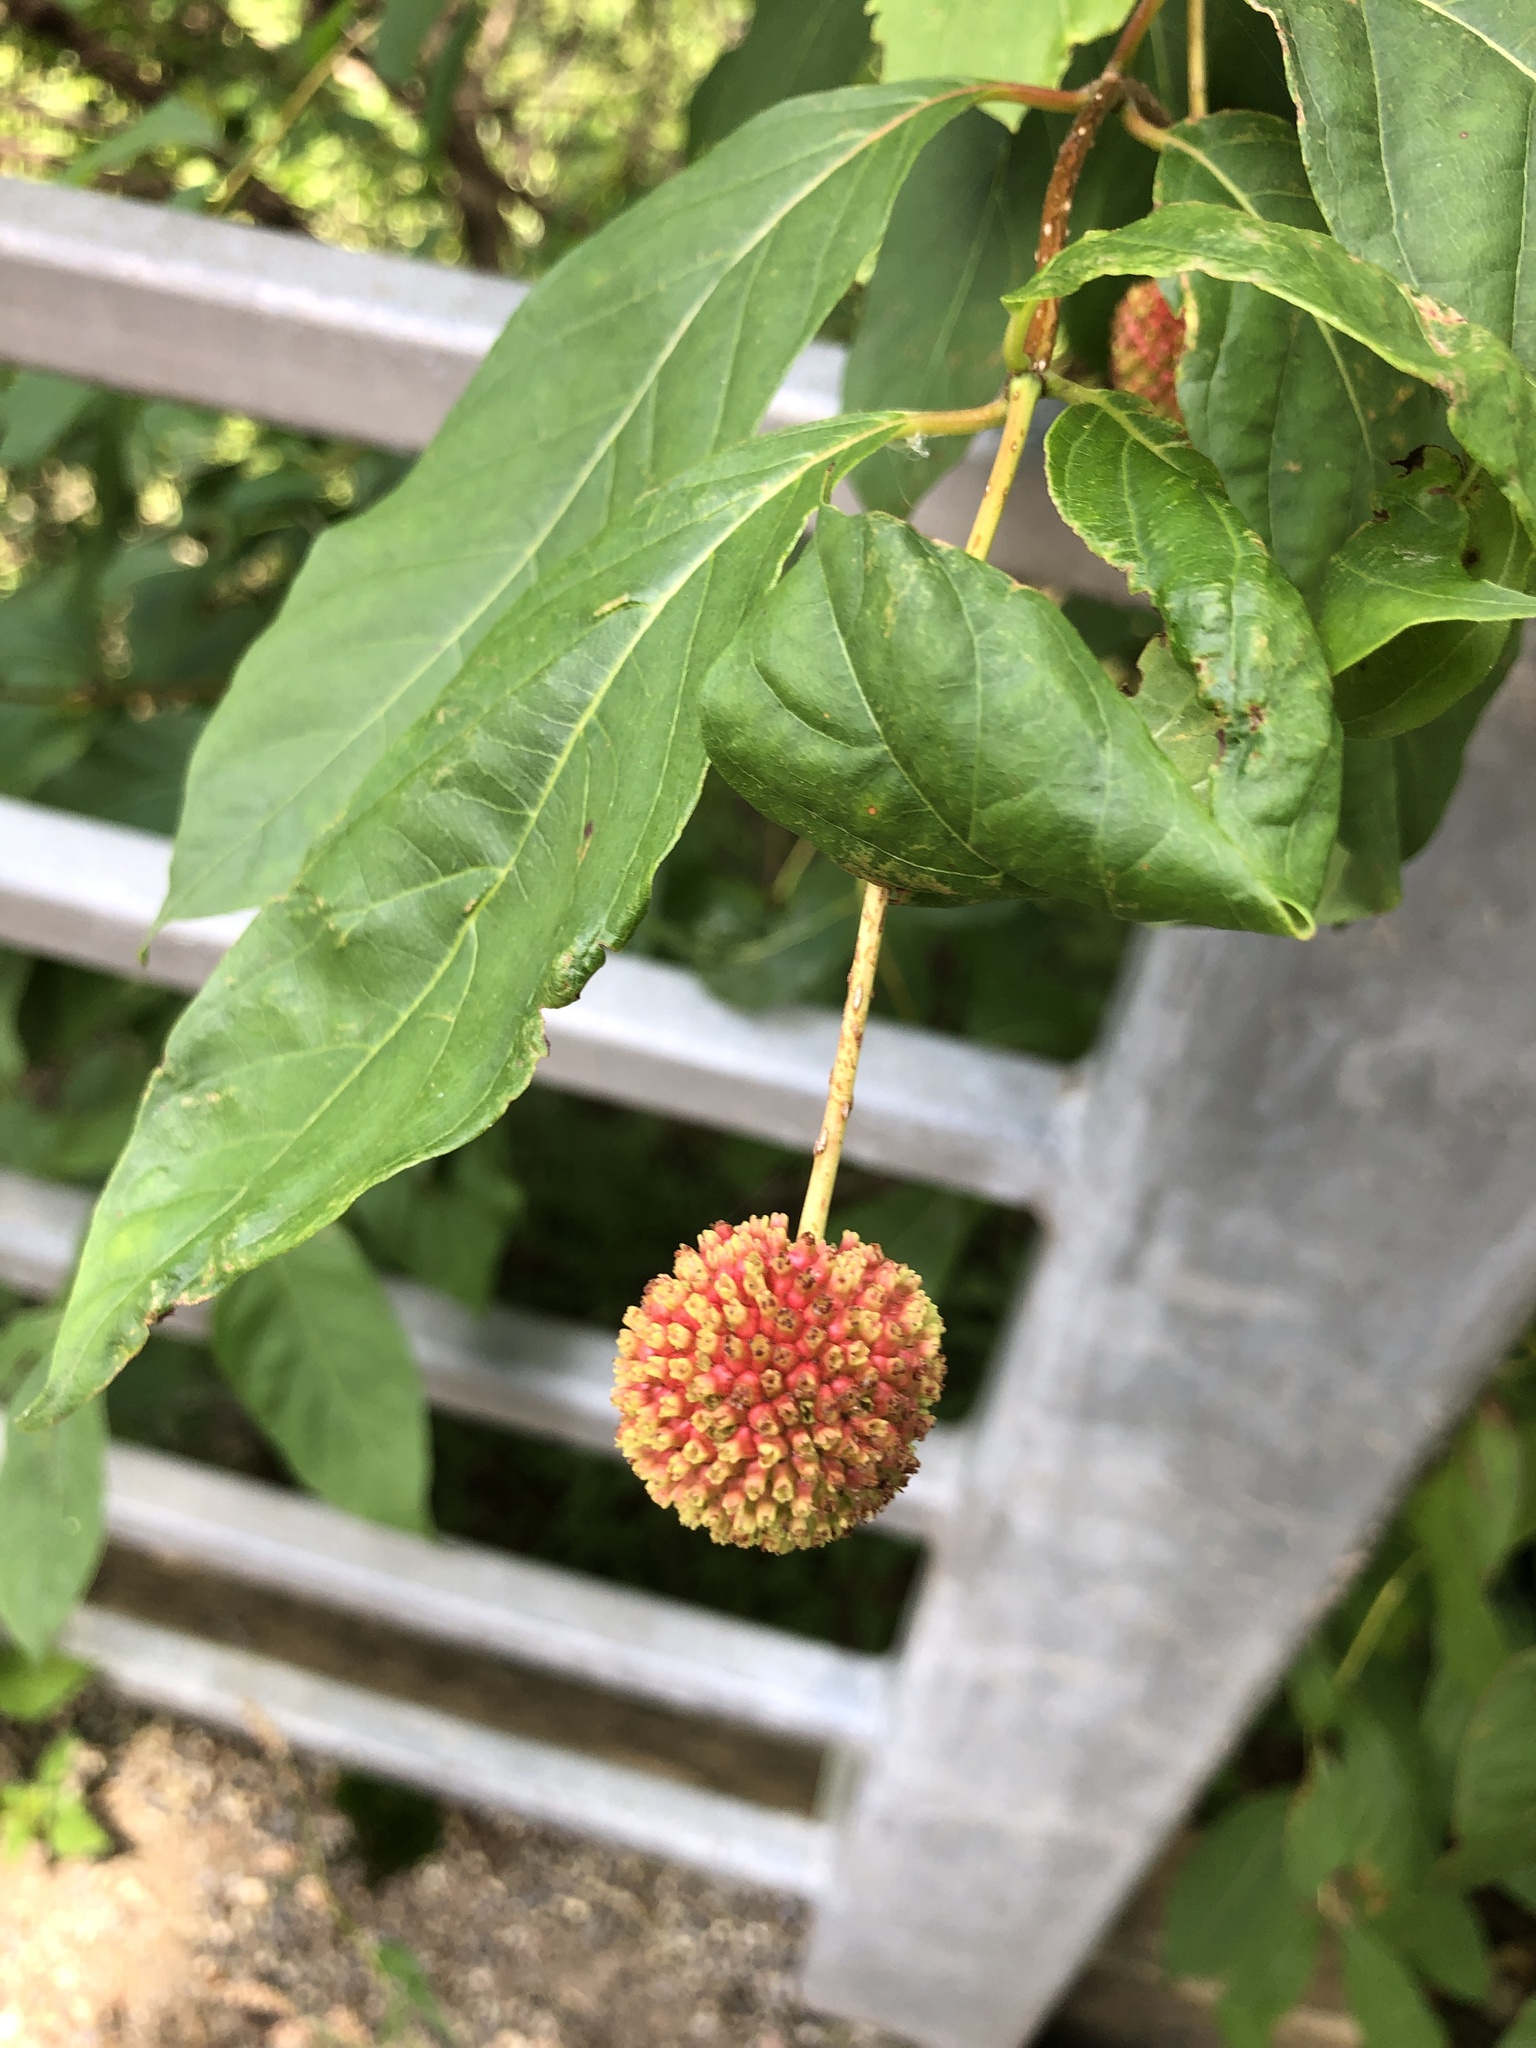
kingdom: Plantae
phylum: Tracheophyta
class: Magnoliopsida
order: Gentianales
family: Rubiaceae
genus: Cephalanthus
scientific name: Cephalanthus occidentalis
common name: Button-willow
